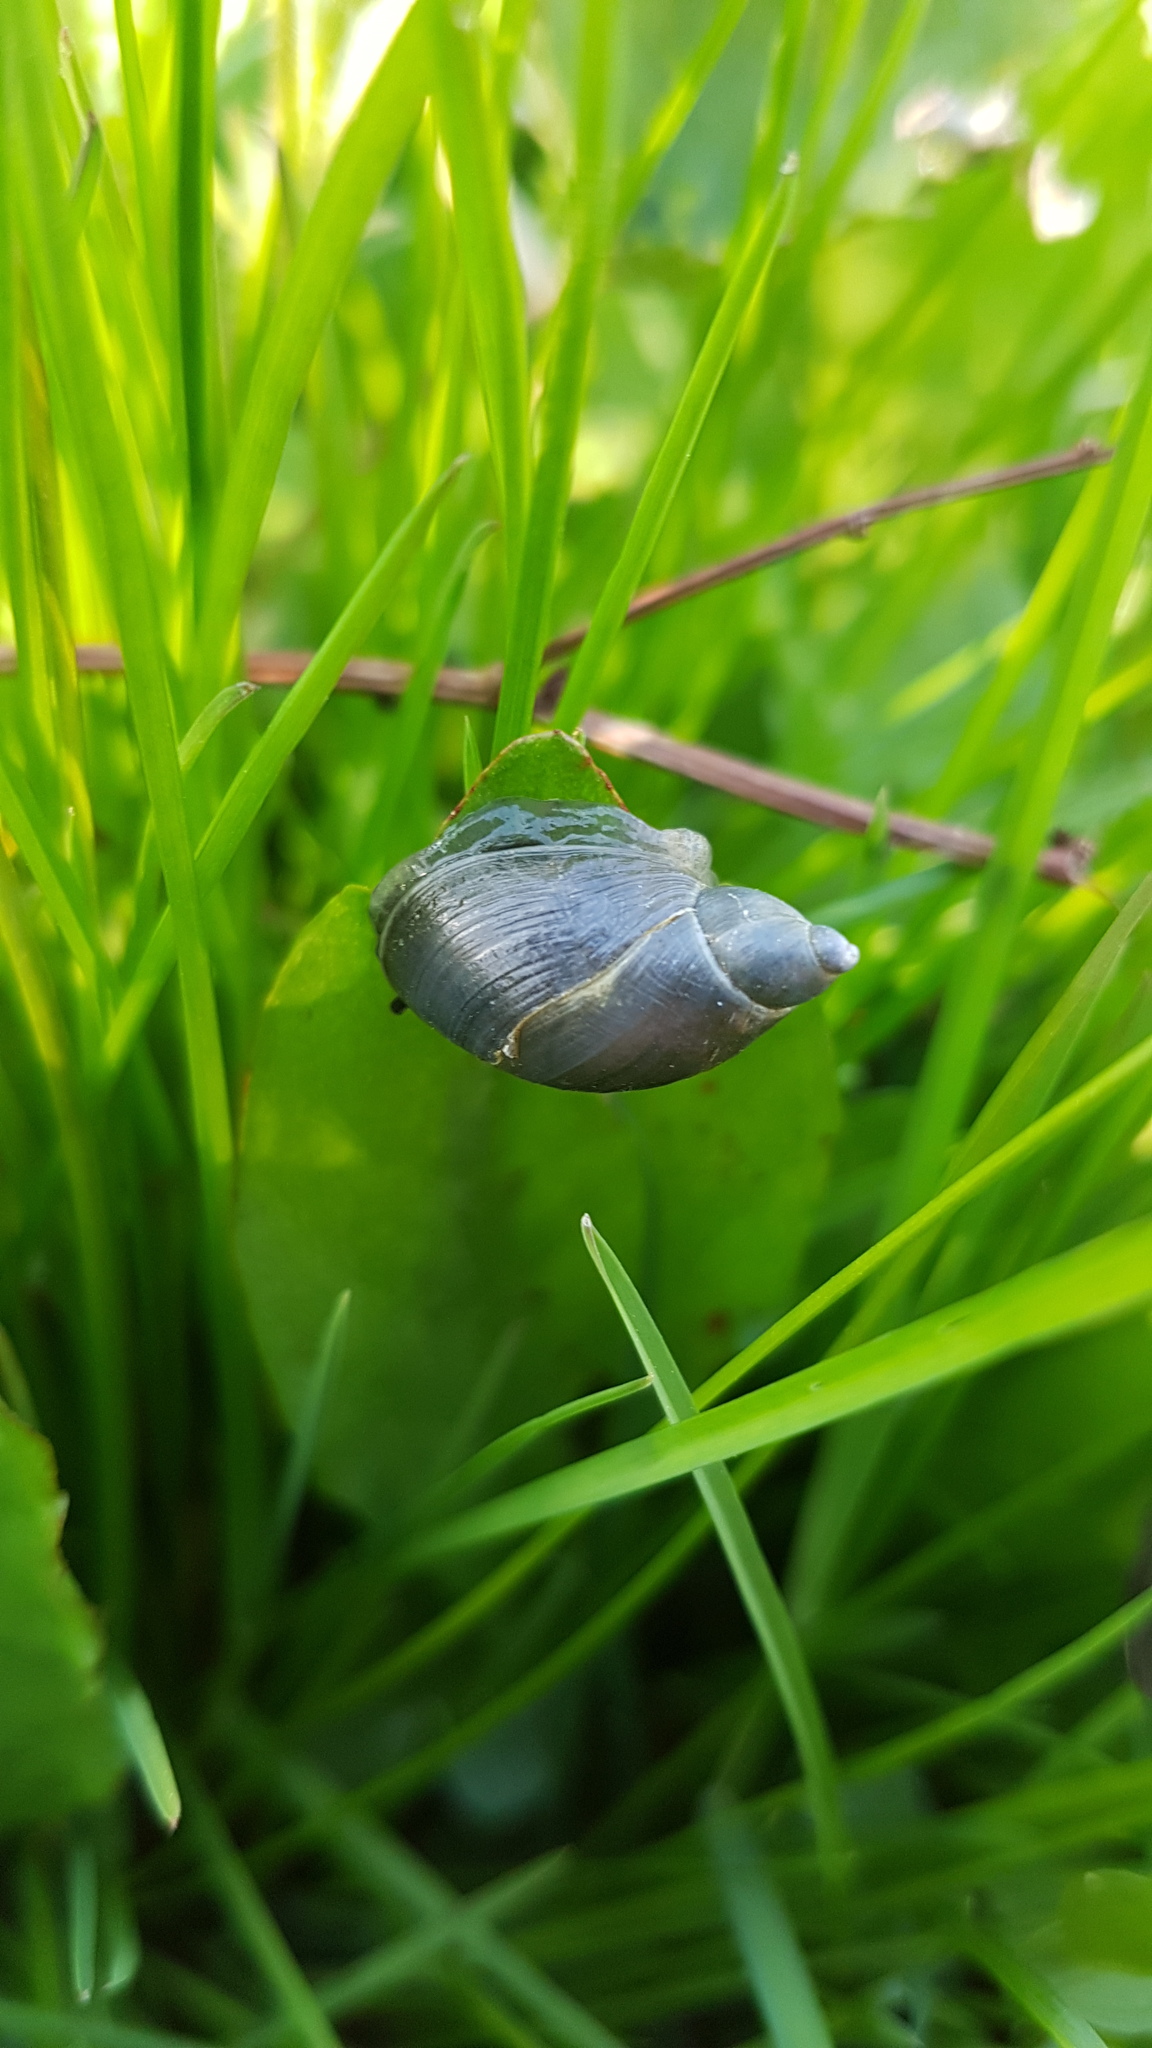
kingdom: Animalia
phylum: Mollusca
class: Gastropoda
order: Stylommatophora
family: Succineidae
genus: Succinea
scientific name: Succinea putris
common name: European ambersnail
